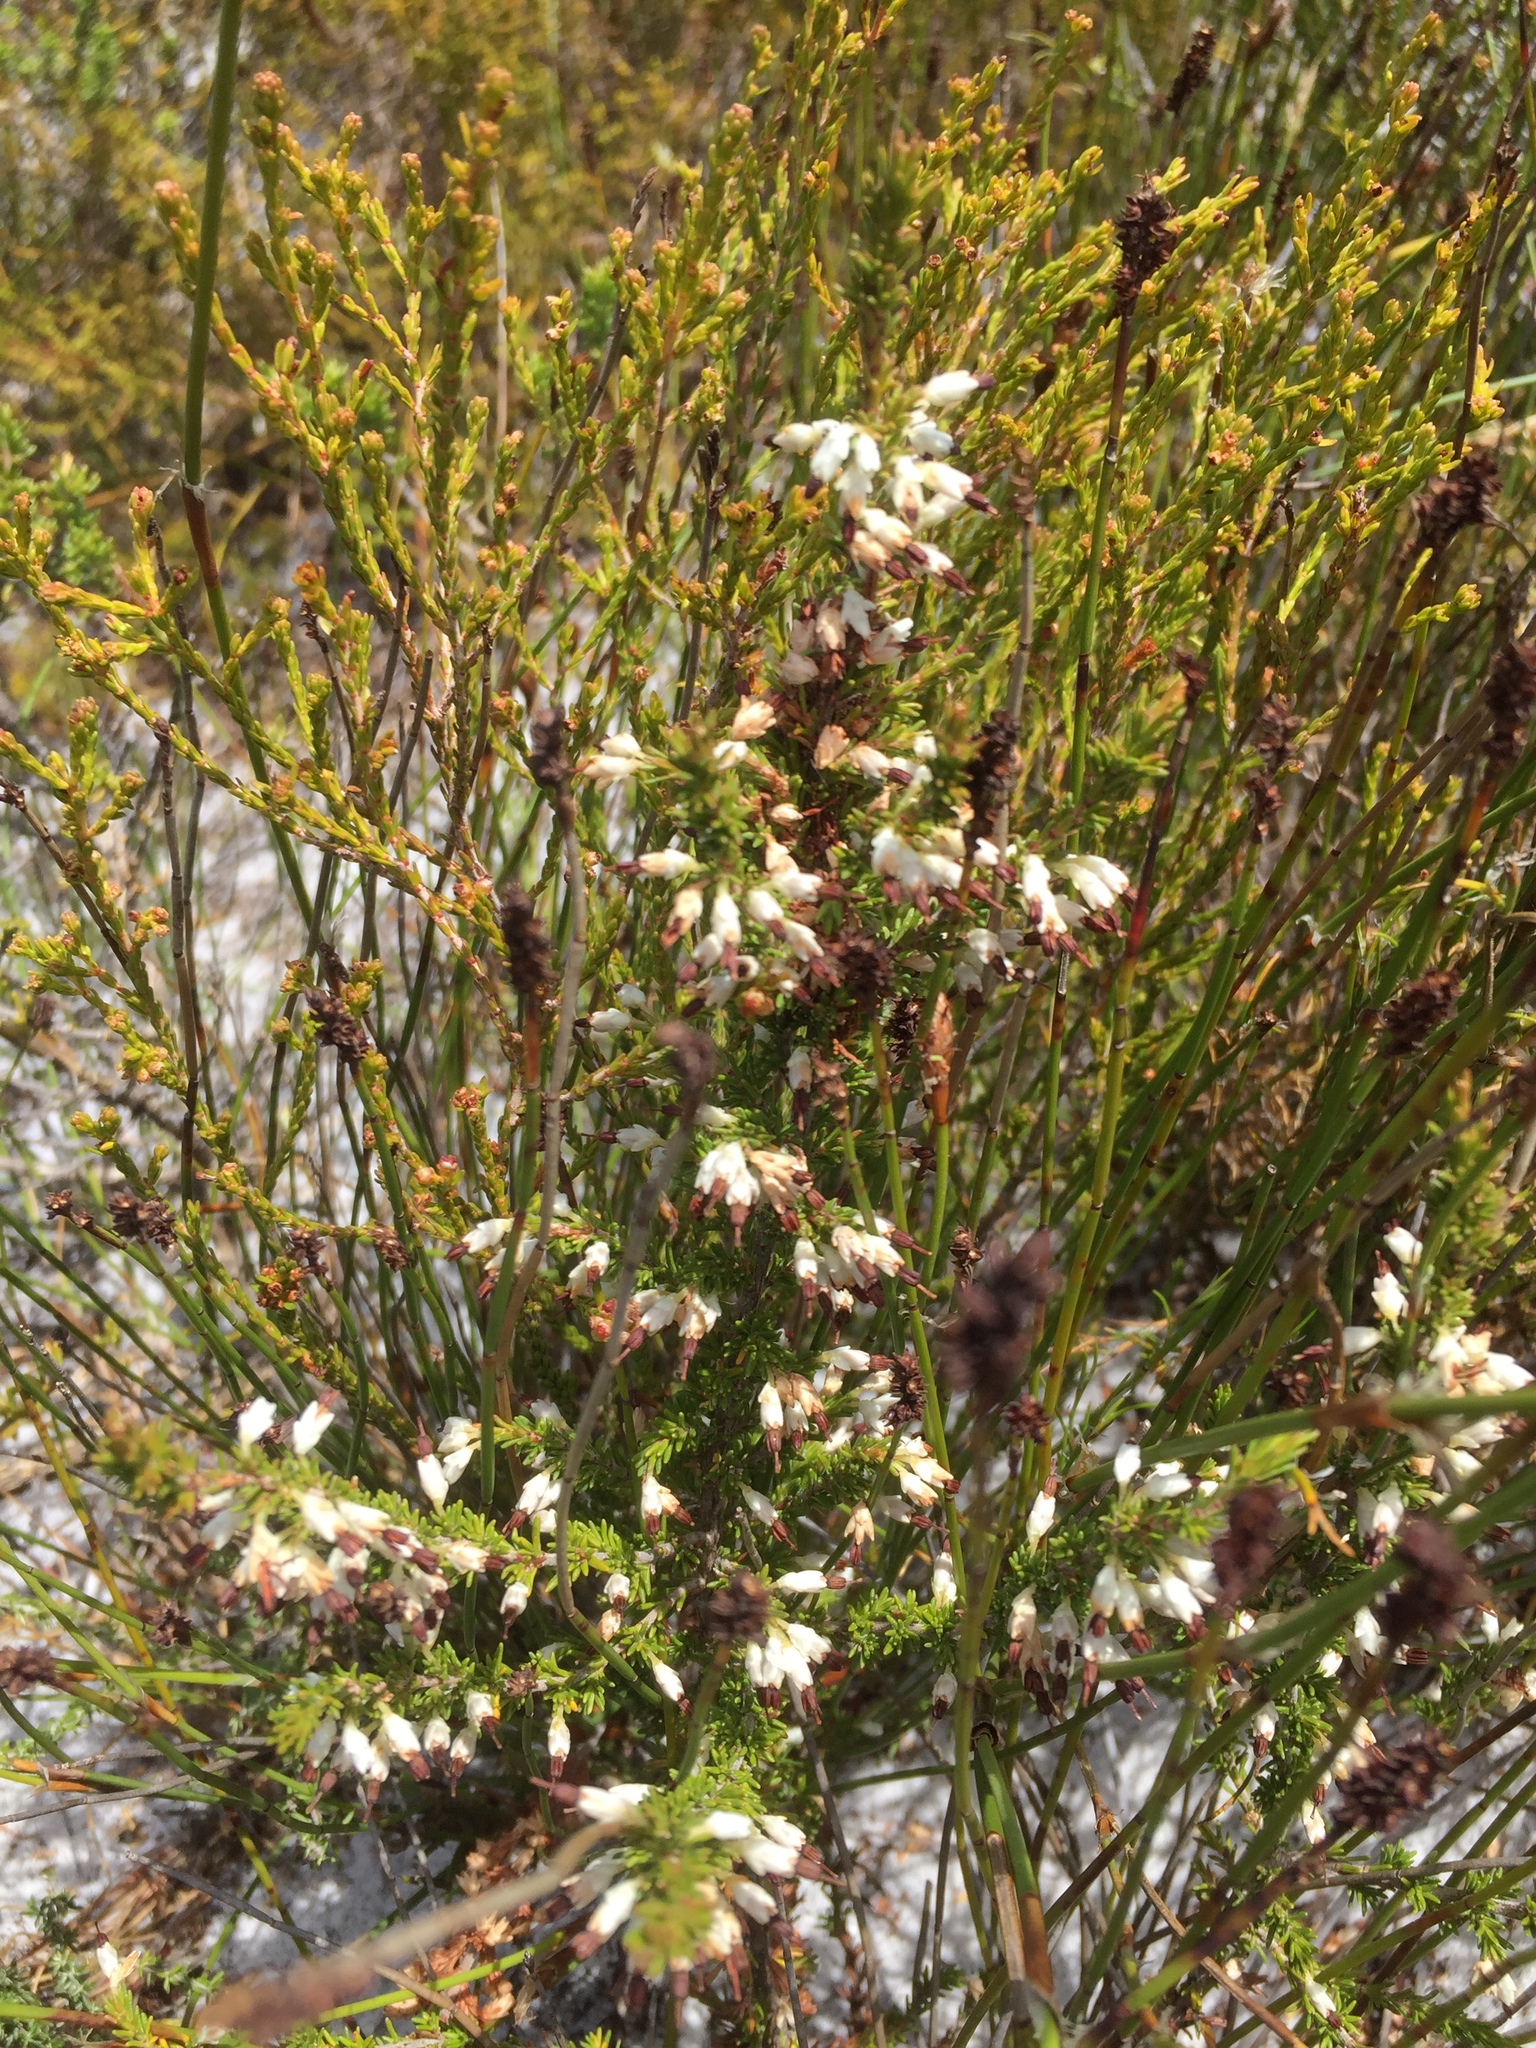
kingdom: Plantae
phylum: Tracheophyta
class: Magnoliopsida
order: Ericales
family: Ericaceae
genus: Erica
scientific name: Erica imbricata
